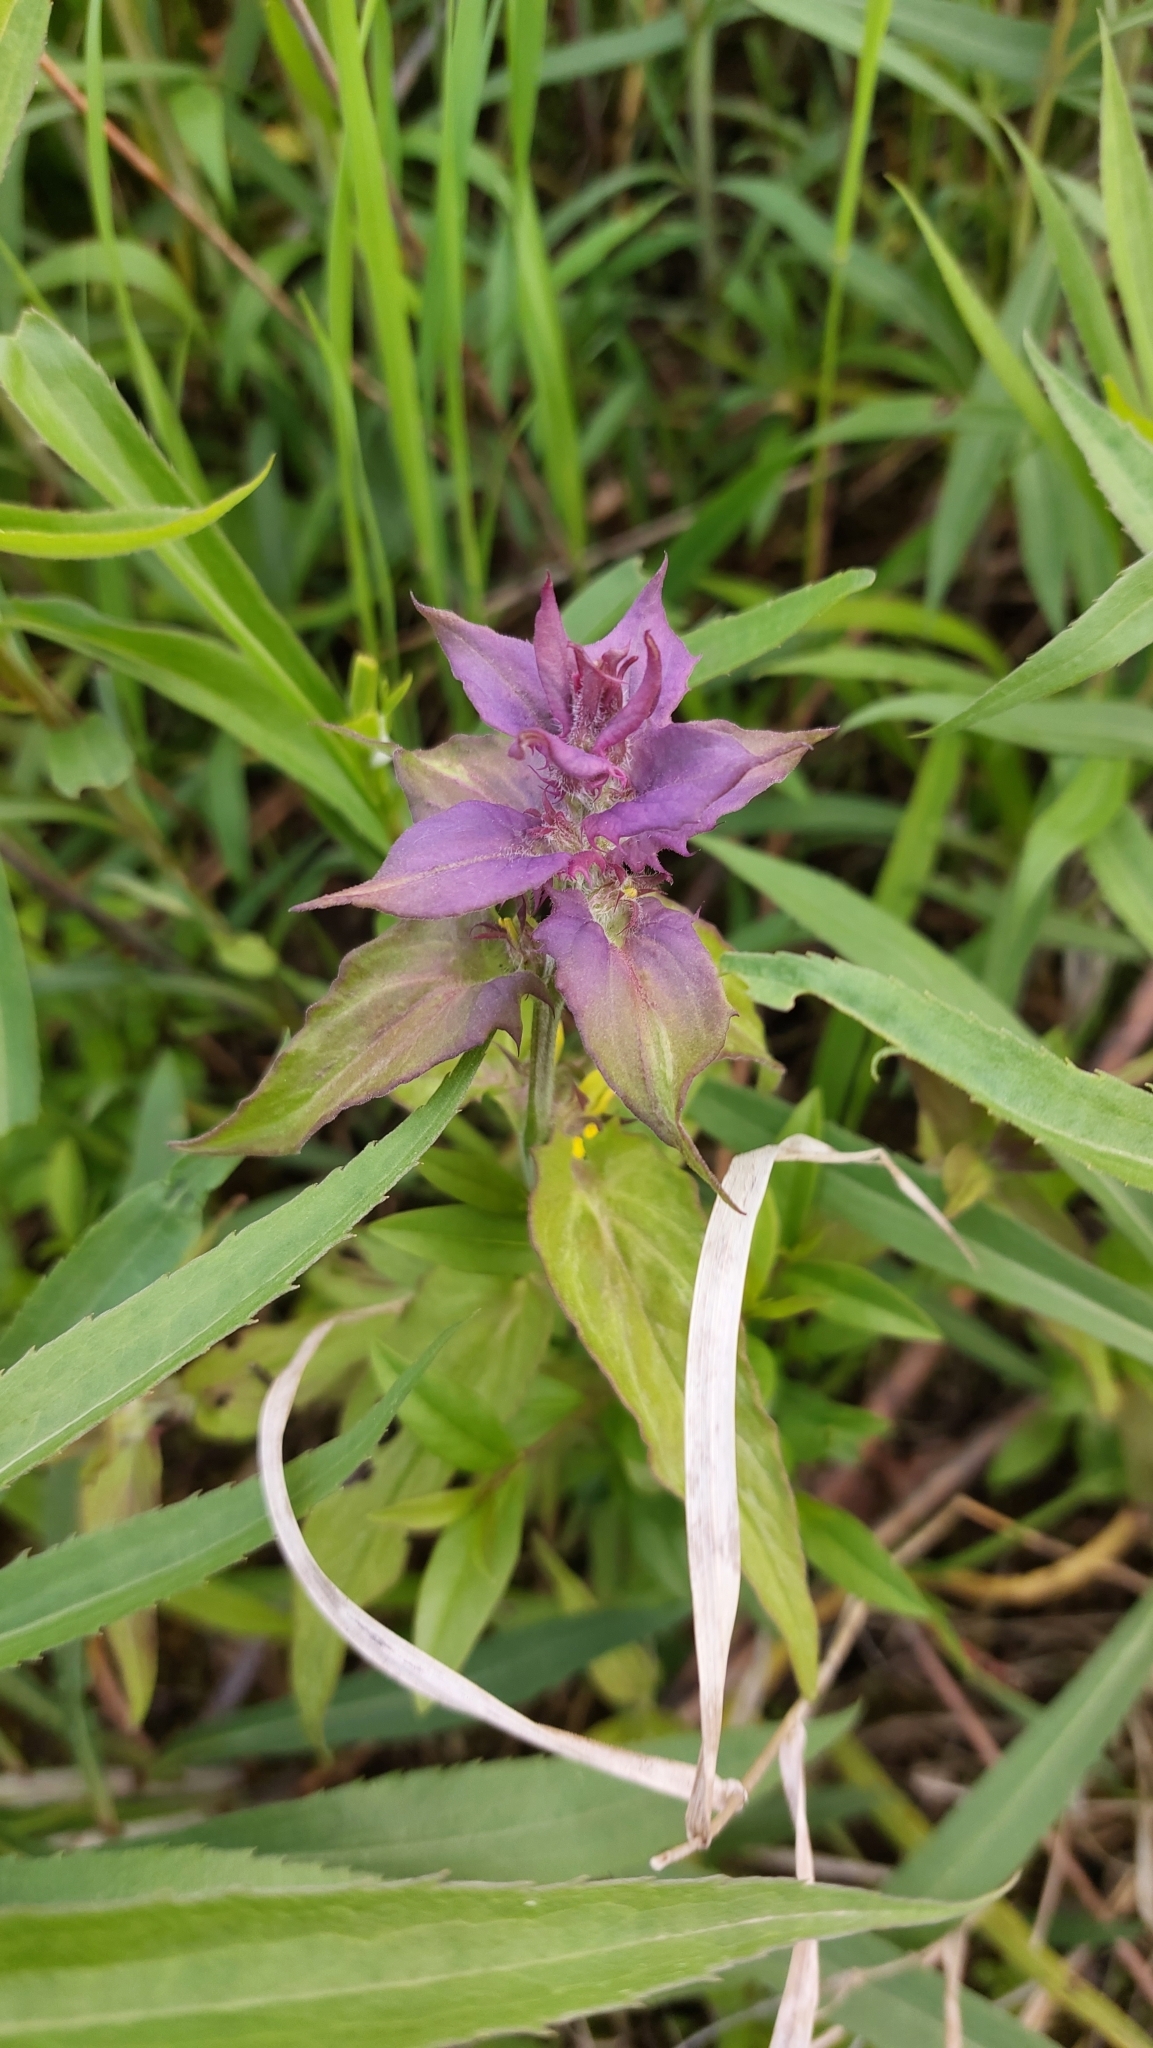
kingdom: Plantae
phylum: Tracheophyta
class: Magnoliopsida
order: Lamiales
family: Orobanchaceae
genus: Melampyrum
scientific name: Melampyrum nemorosum
